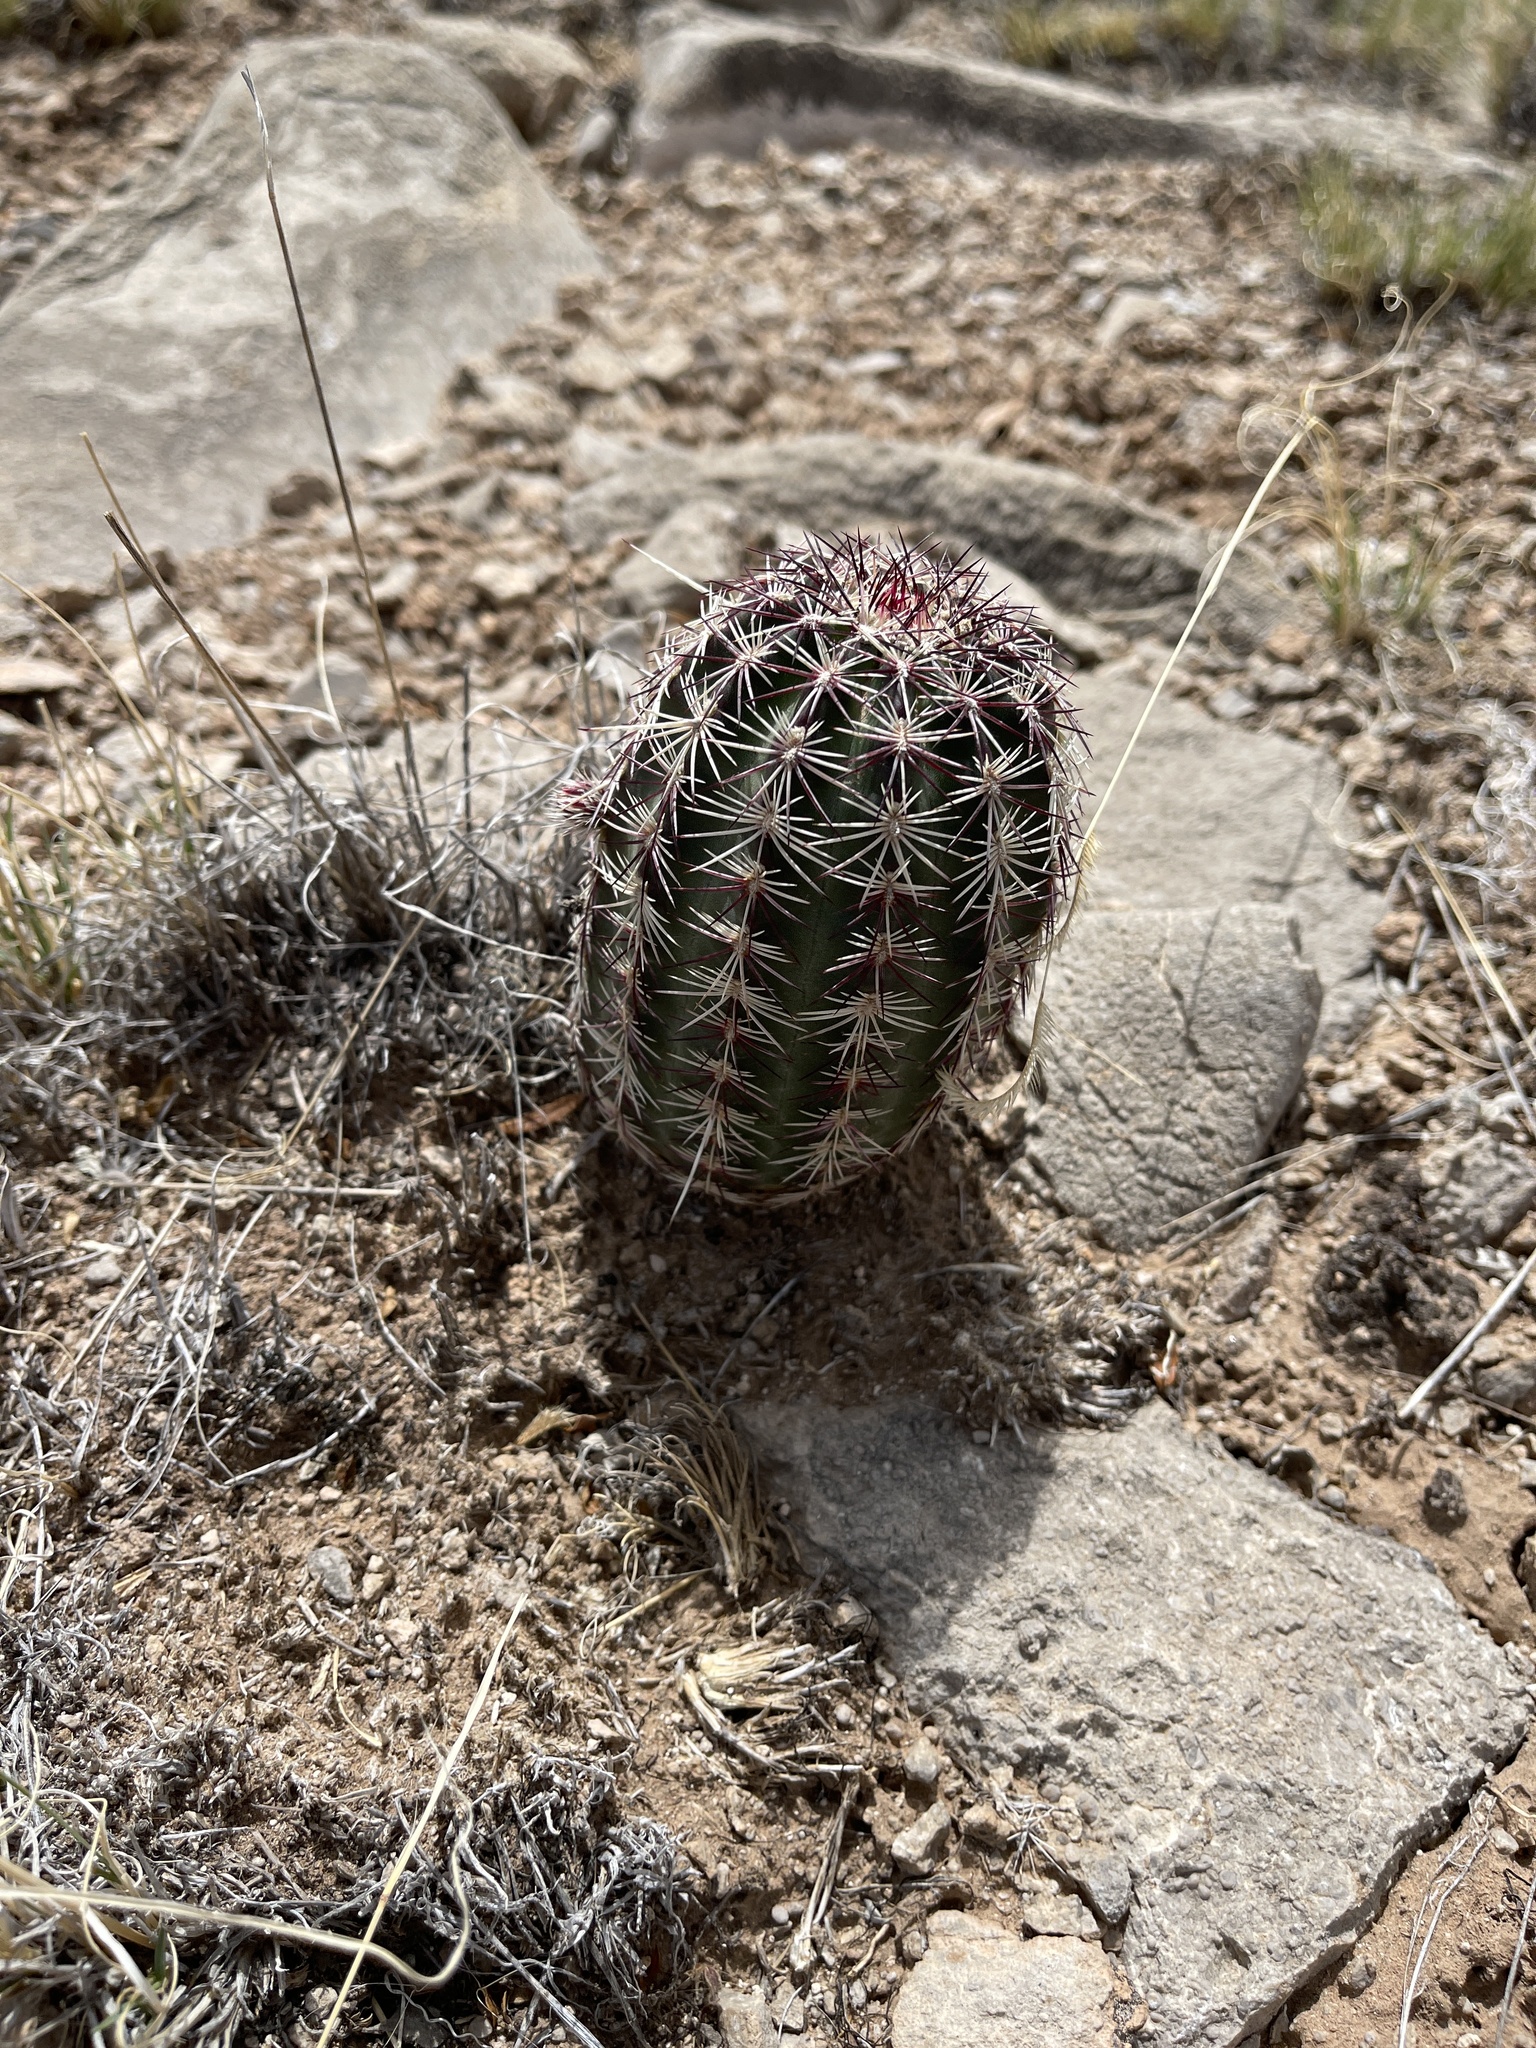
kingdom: Plantae
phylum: Tracheophyta
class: Magnoliopsida
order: Caryophyllales
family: Cactaceae
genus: Echinocereus
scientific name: Echinocereus viridiflorus
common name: Nylon hedgehog cactus
